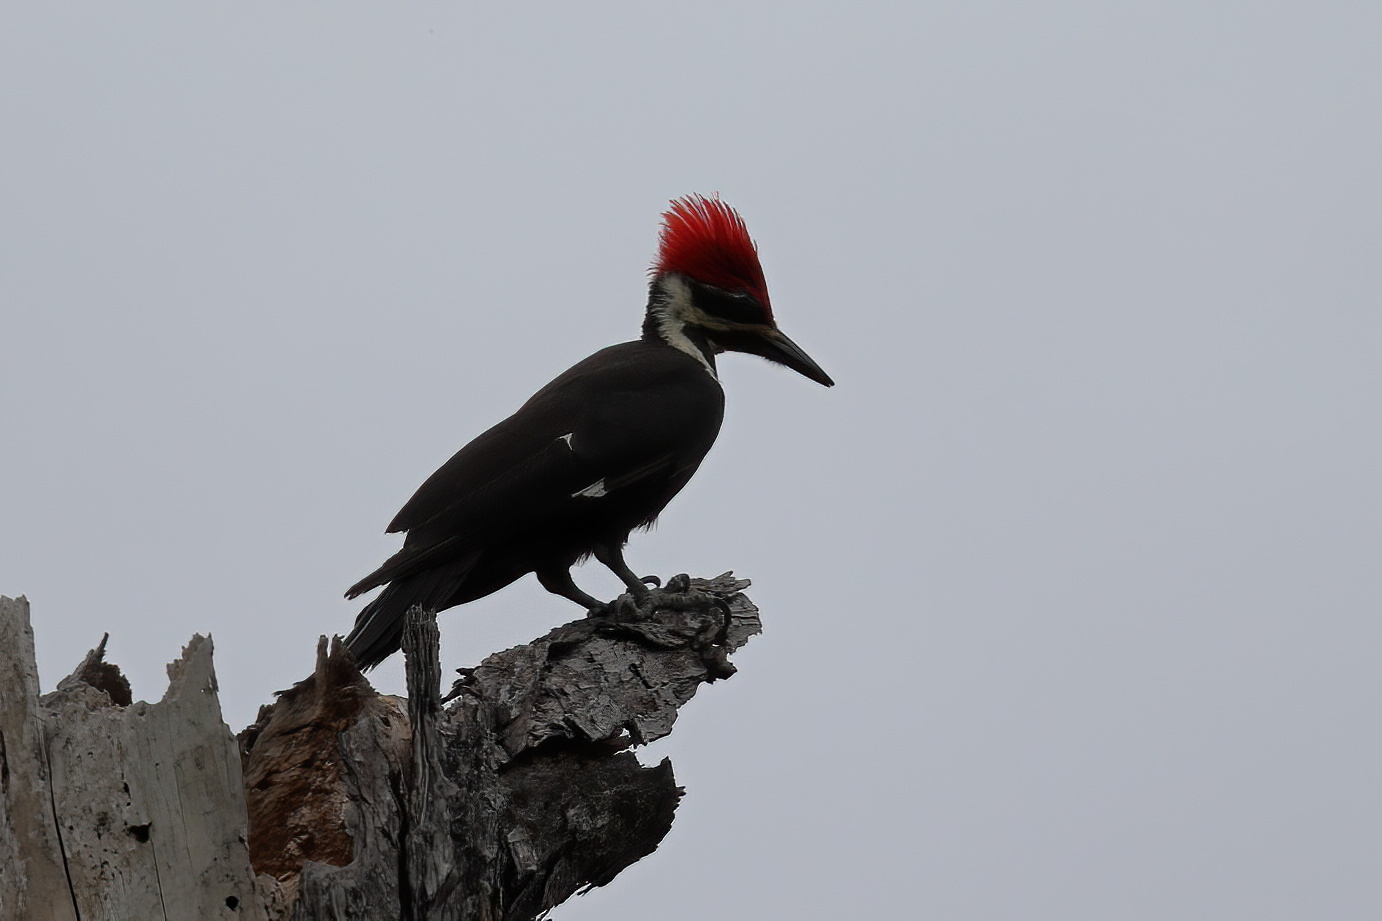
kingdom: Animalia
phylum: Chordata
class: Aves
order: Piciformes
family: Picidae
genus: Dryocopus
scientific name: Dryocopus pileatus
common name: Pileated woodpecker
